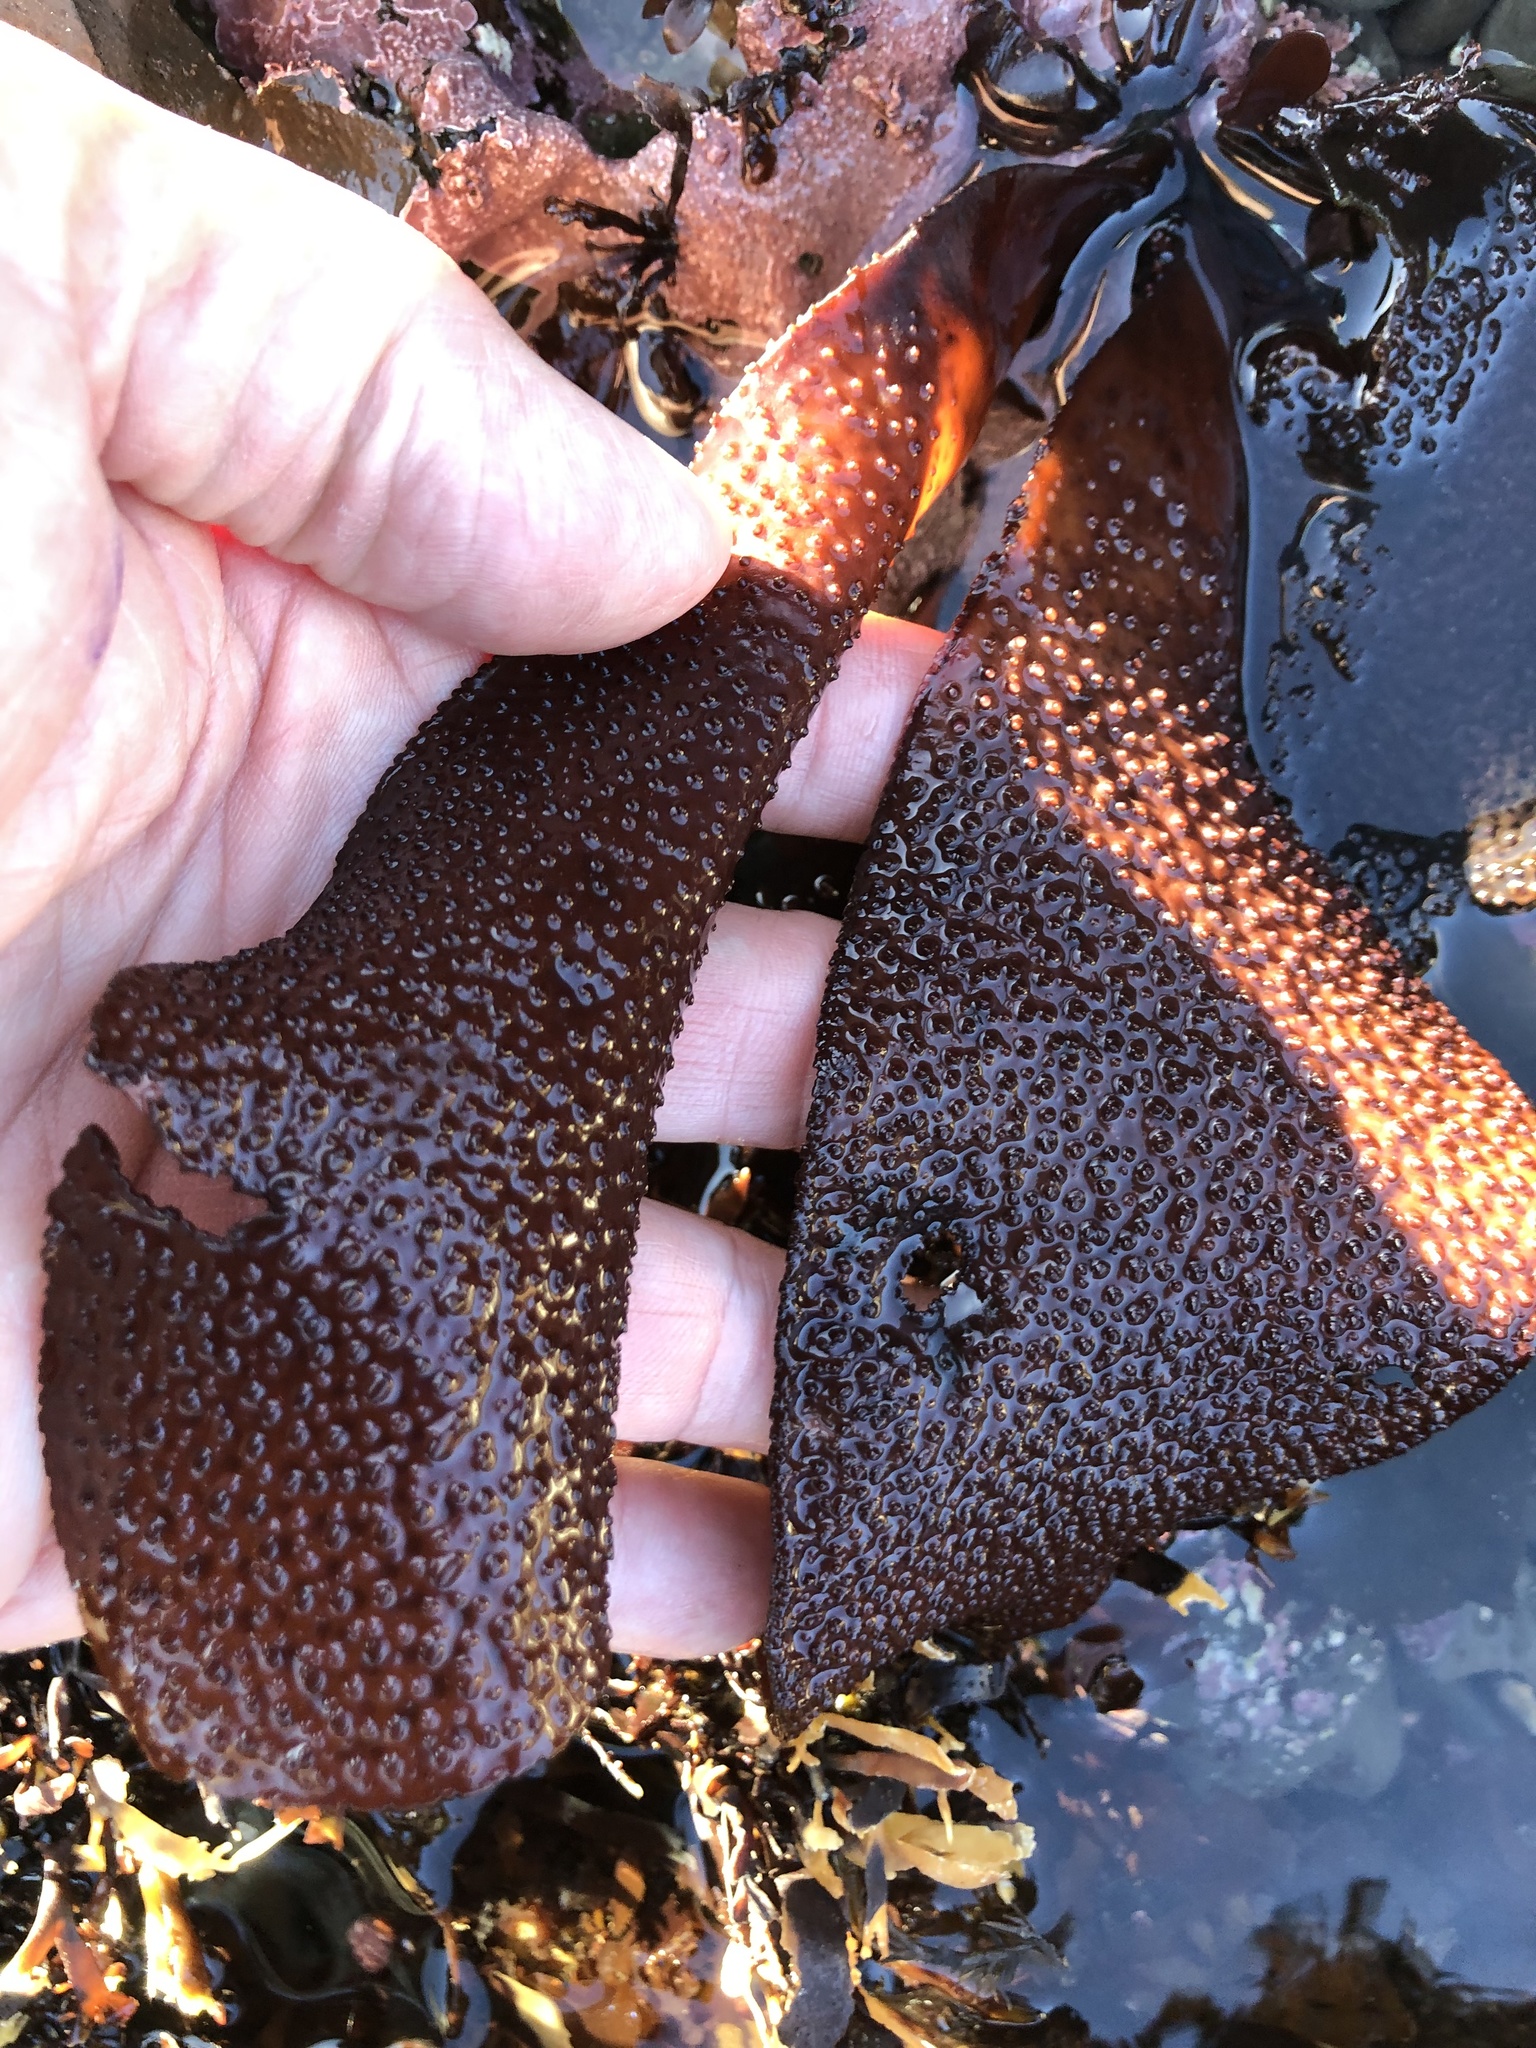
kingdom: Plantae
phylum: Rhodophyta
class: Florideophyceae
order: Gigartinales
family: Gigartinaceae
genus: Chondracanthus
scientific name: Chondracanthus exasperatus
